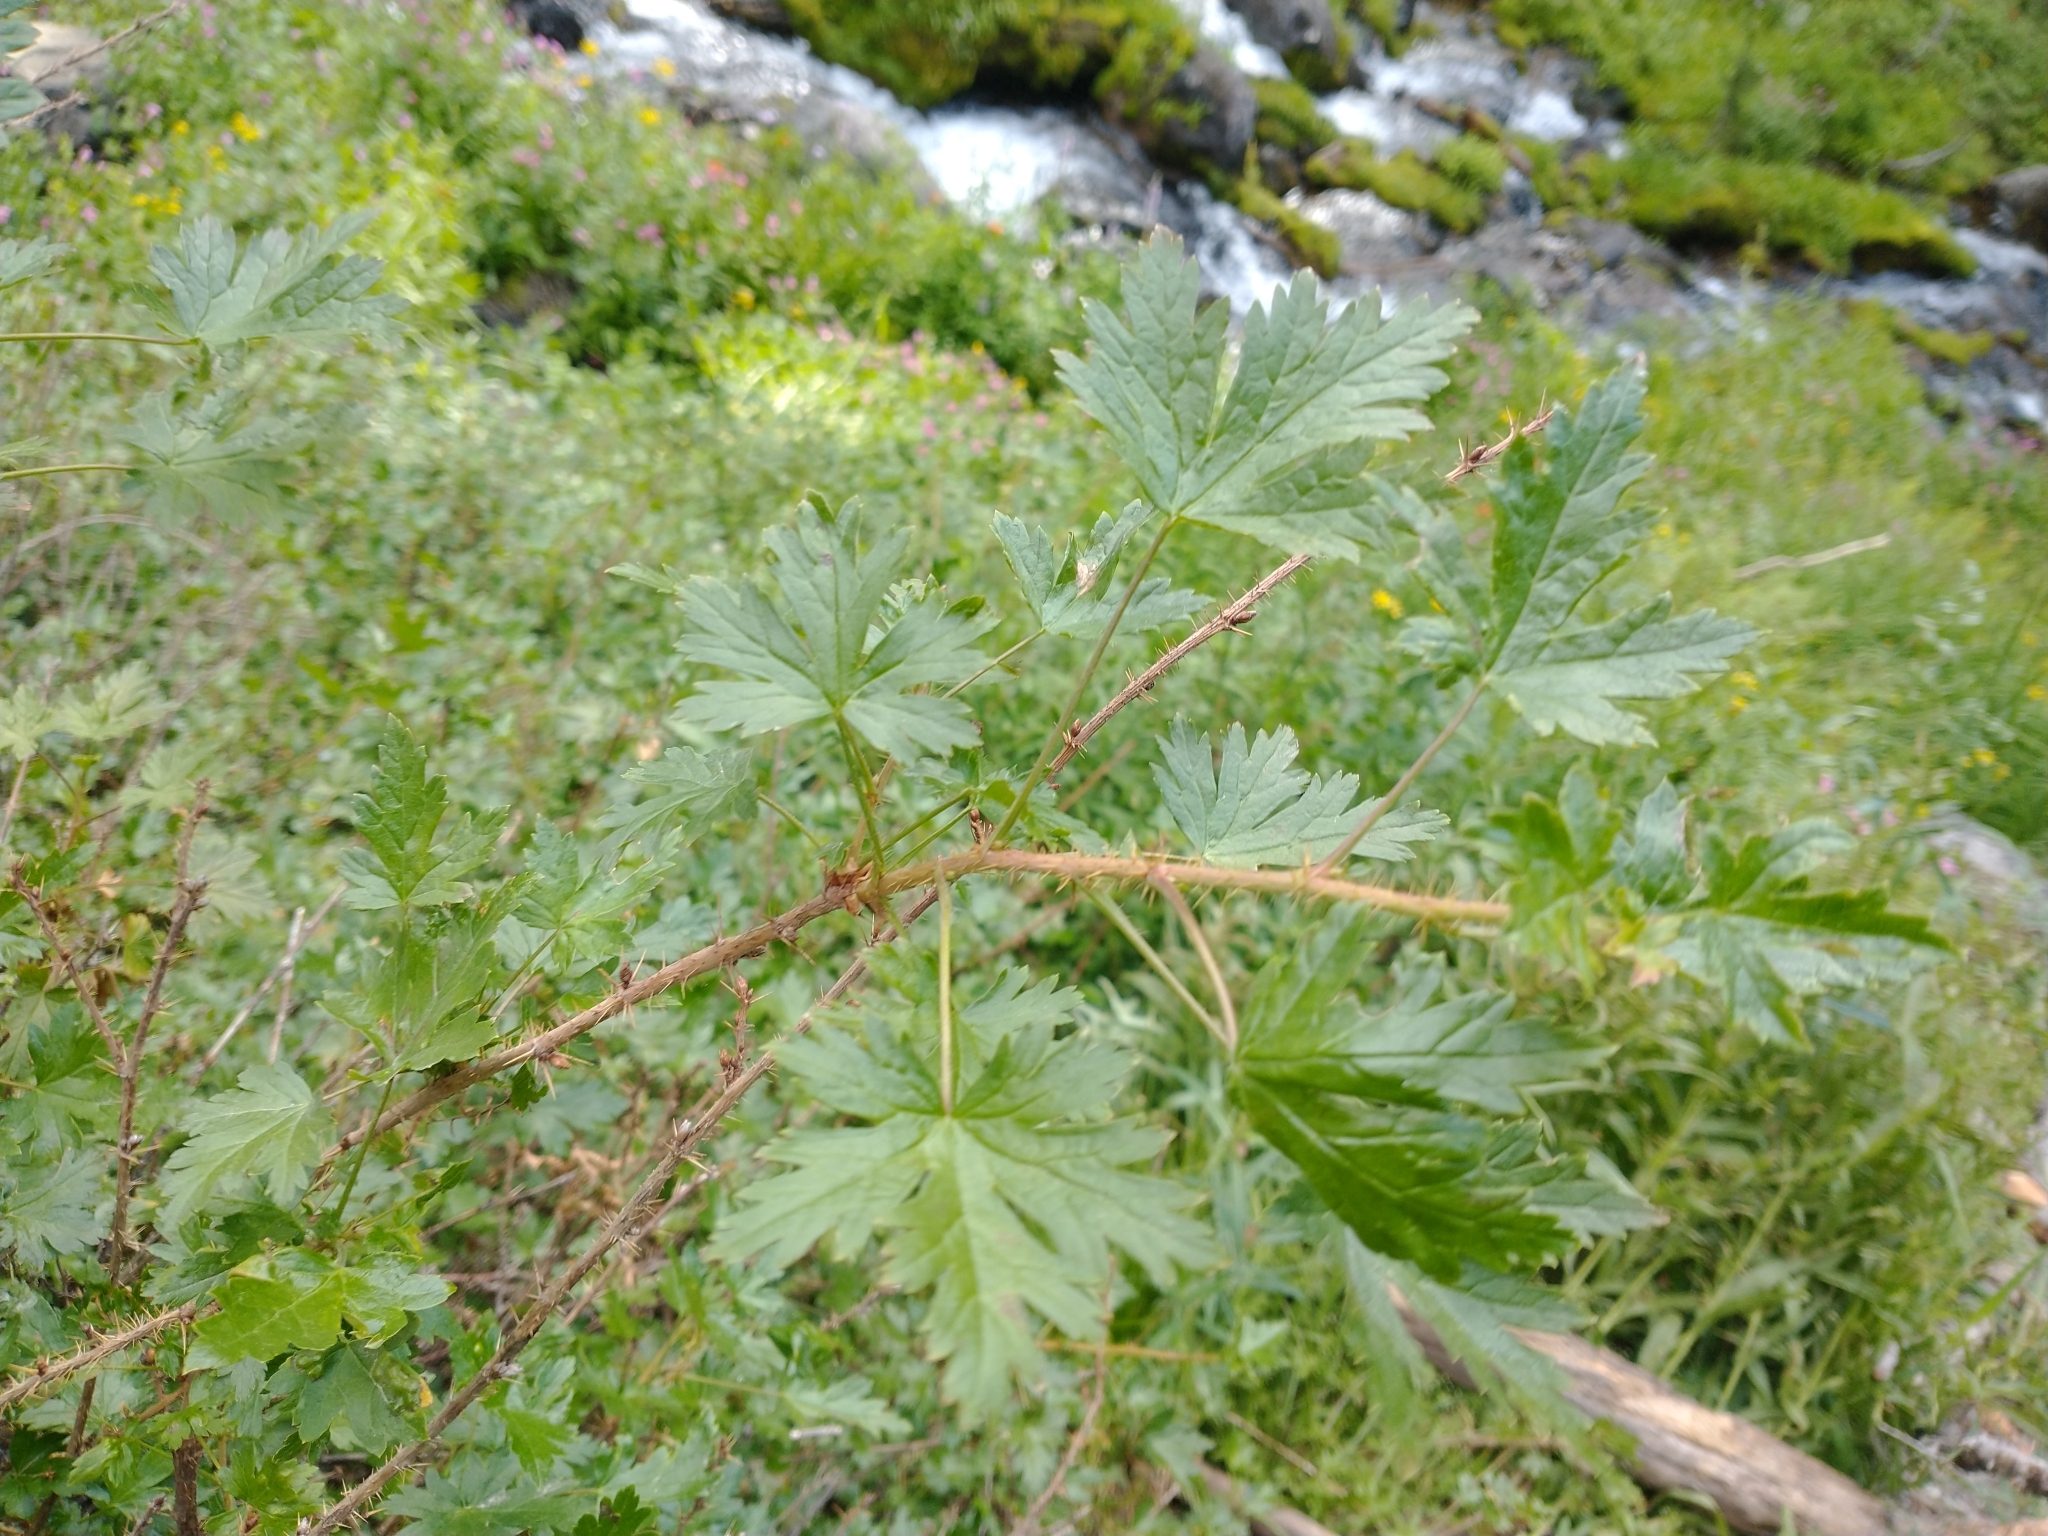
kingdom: Plantae
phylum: Tracheophyta
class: Magnoliopsida
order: Saxifragales
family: Grossulariaceae
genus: Ribes
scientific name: Ribes lacustre
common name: Black gooseberry
